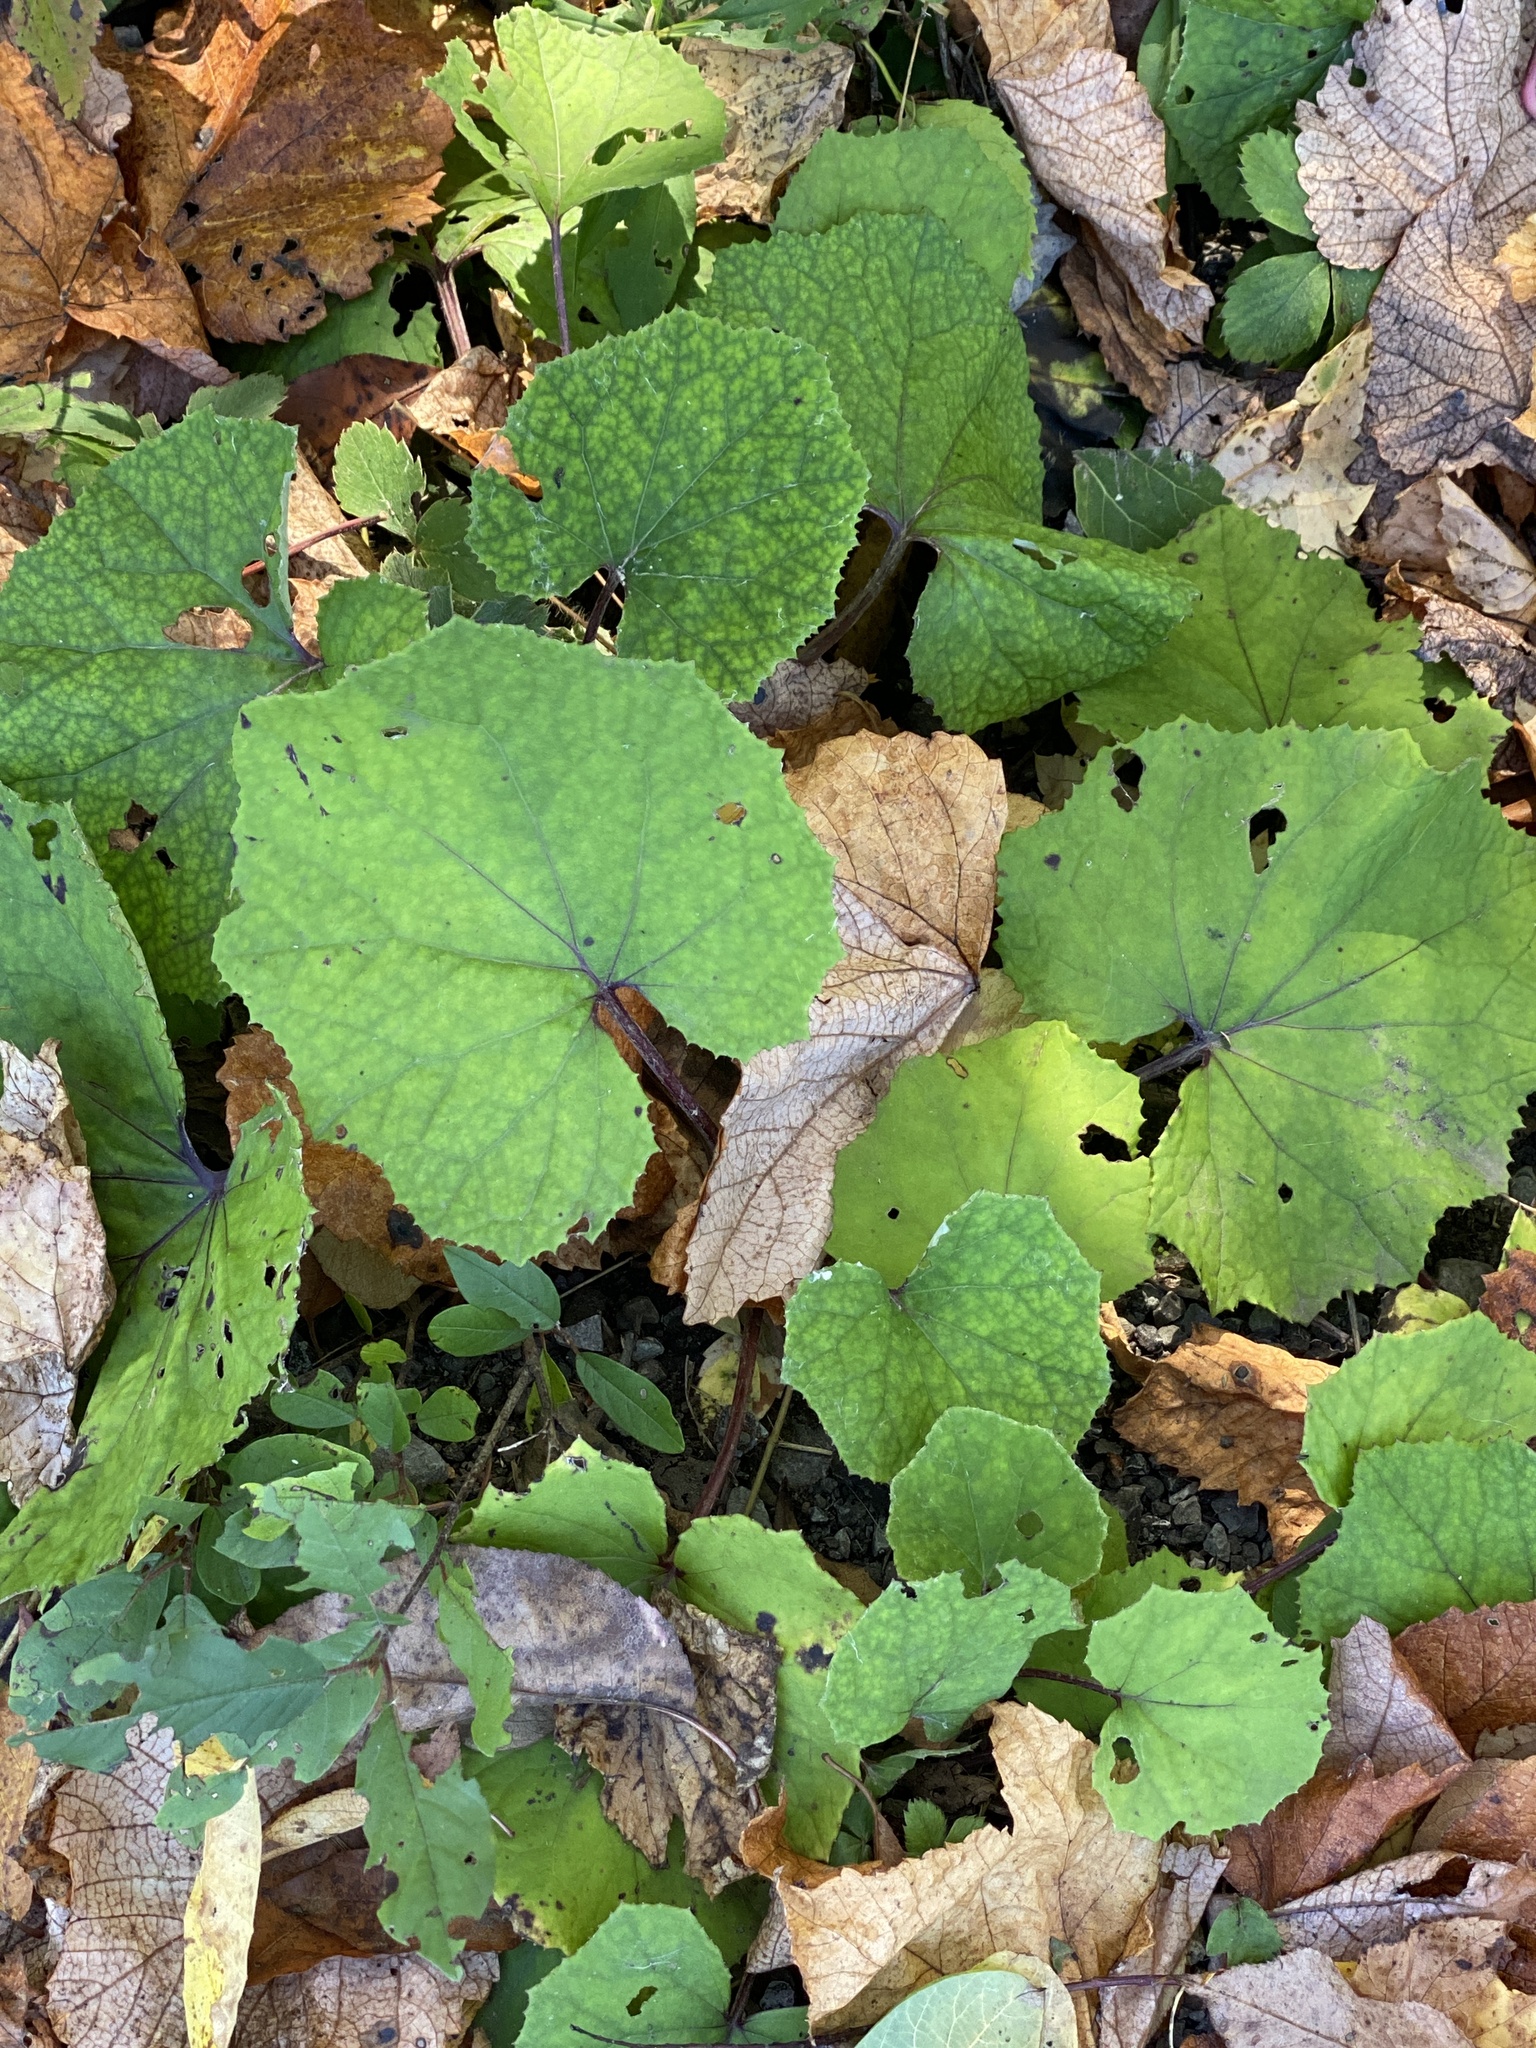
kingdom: Plantae
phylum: Tracheophyta
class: Magnoliopsida
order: Asterales
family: Asteraceae
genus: Tussilago
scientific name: Tussilago farfara
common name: Coltsfoot
